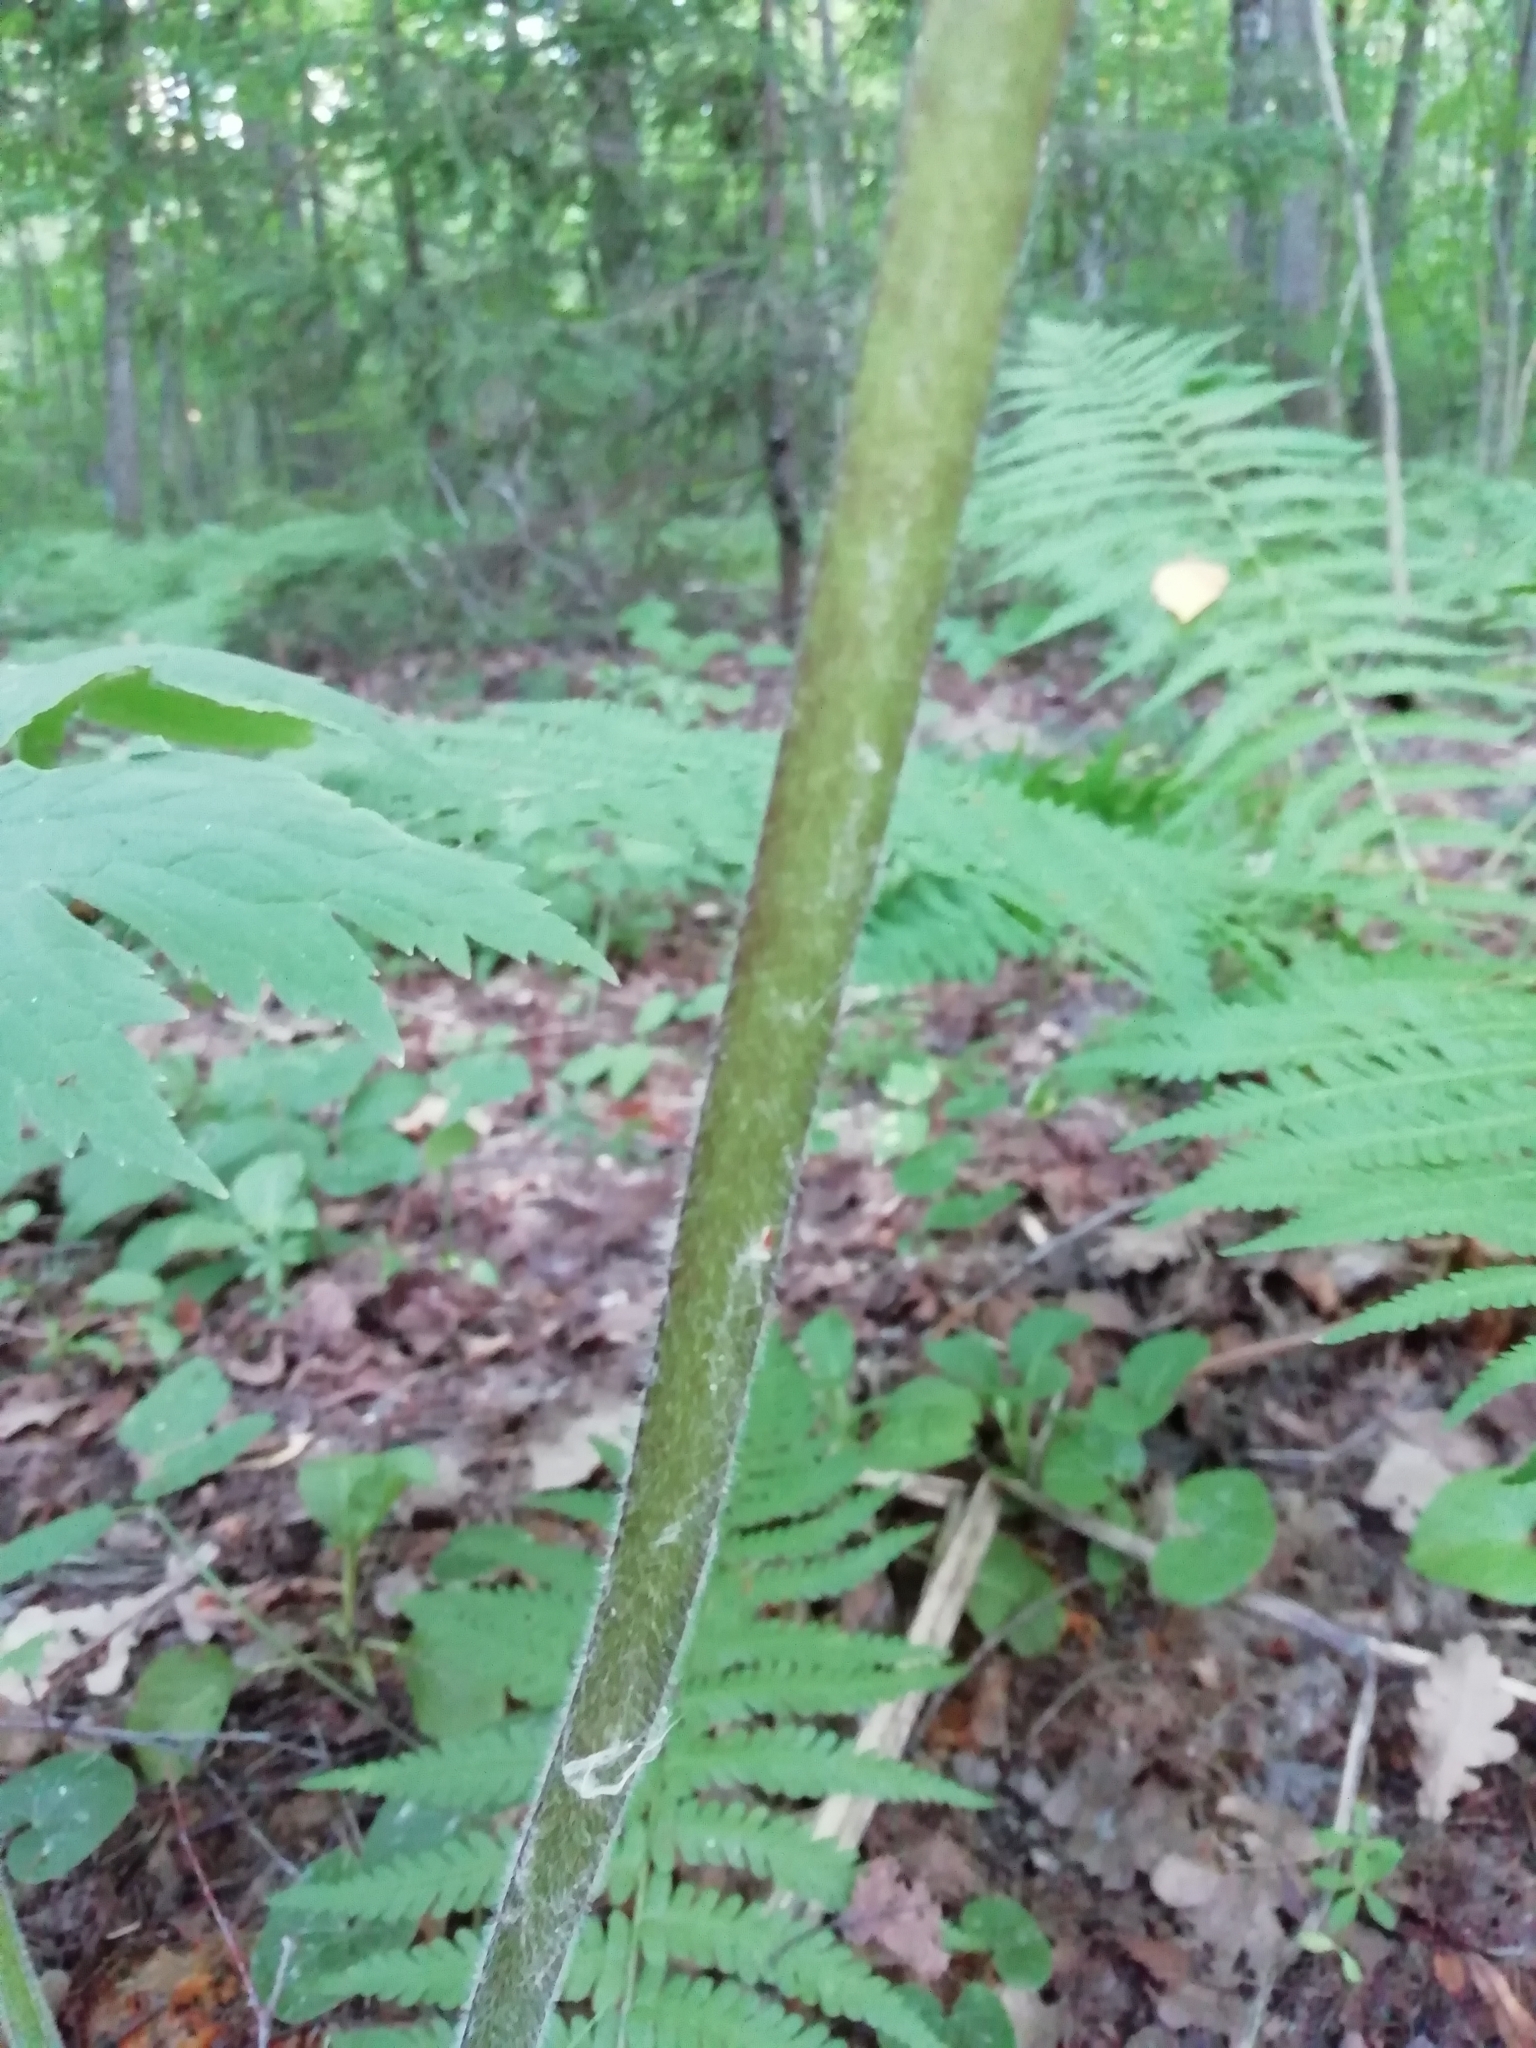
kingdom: Plantae
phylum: Tracheophyta
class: Magnoliopsida
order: Ranunculales
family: Ranunculaceae
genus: Aconitum
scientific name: Aconitum septentrionale
